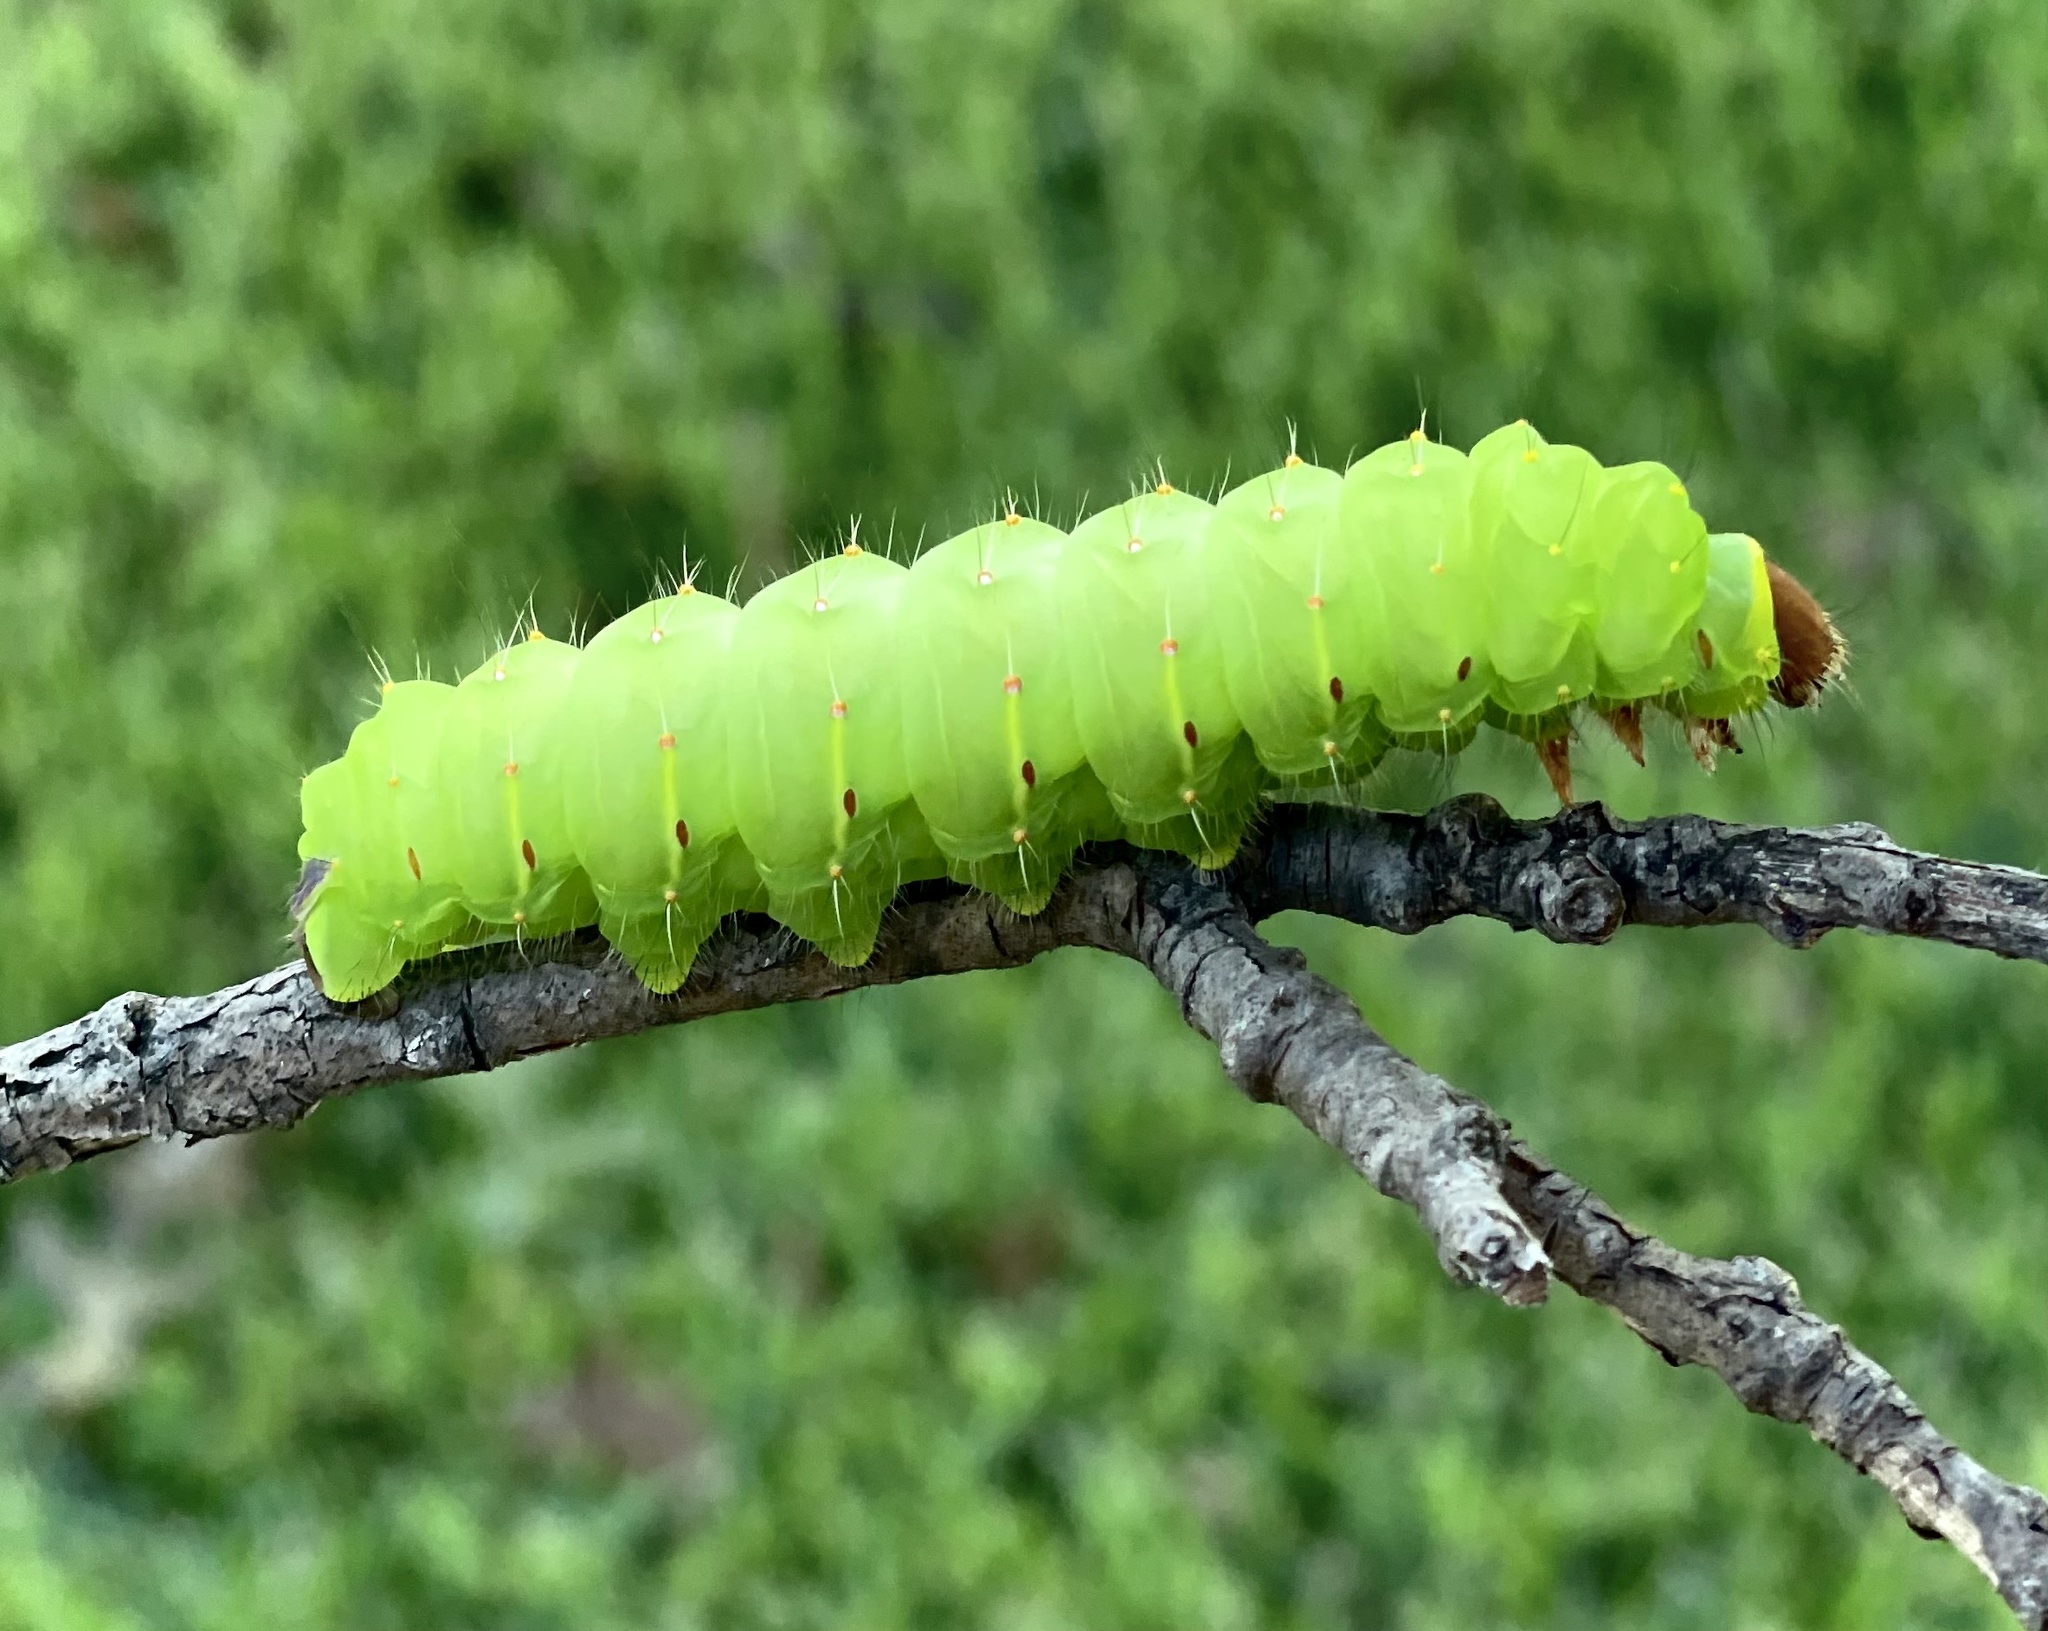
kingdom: Animalia
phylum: Arthropoda
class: Insecta
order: Lepidoptera
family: Saturniidae
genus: Antheraea
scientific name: Antheraea polyphemus
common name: Polyphemus moth
